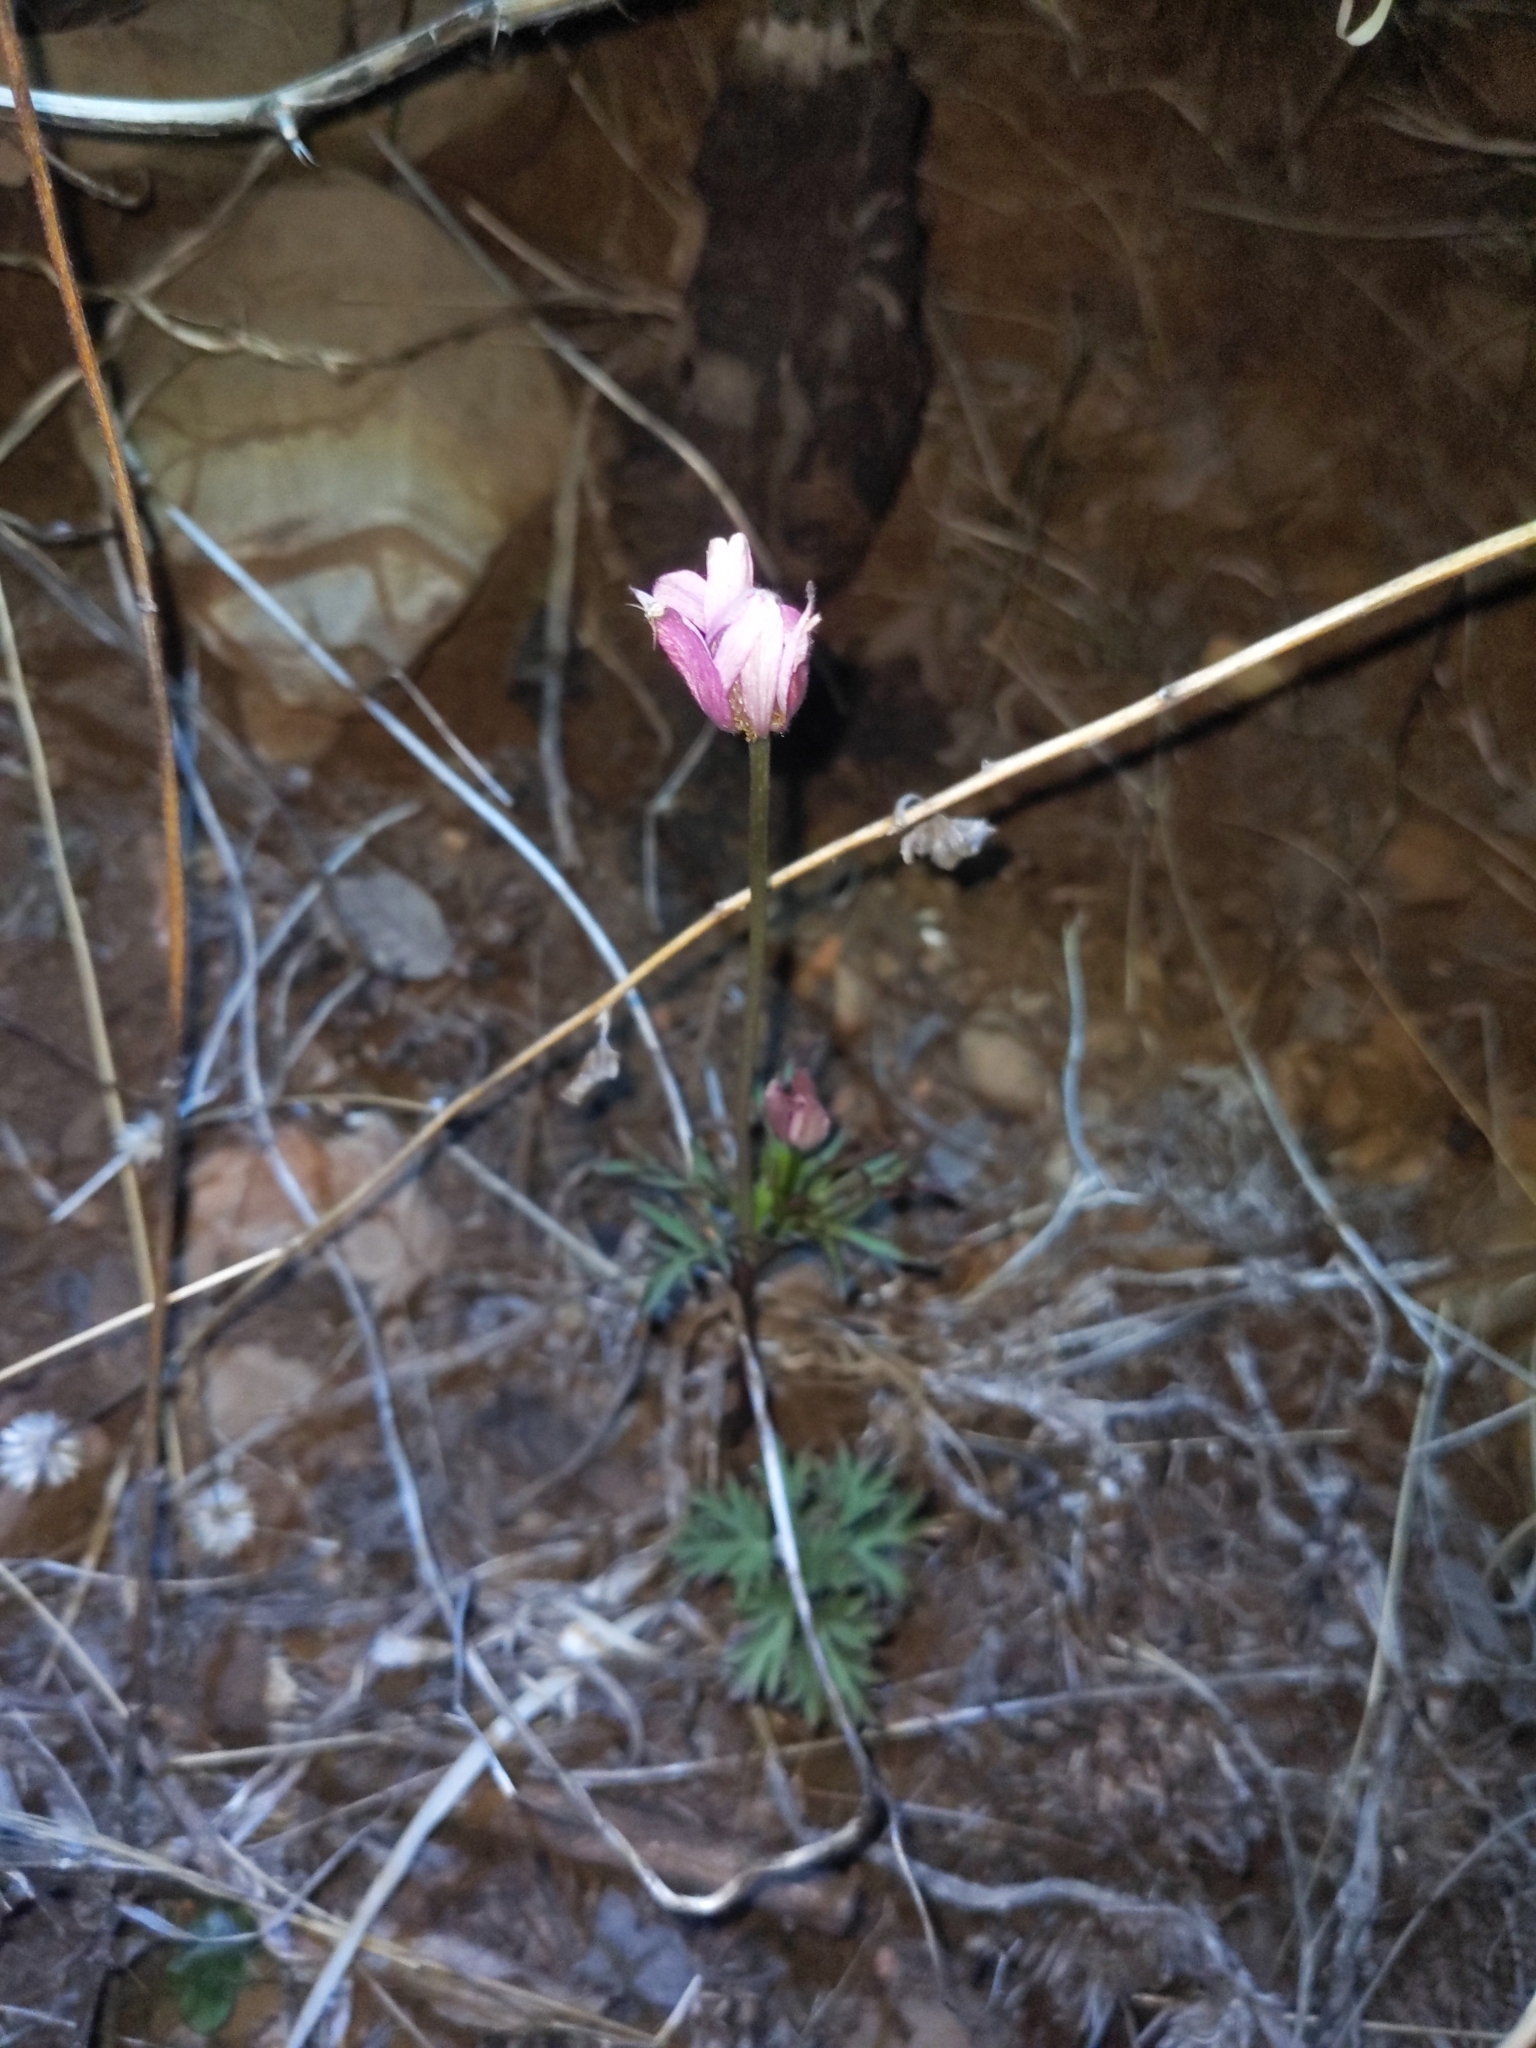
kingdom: Plantae
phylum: Tracheophyta
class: Magnoliopsida
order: Ranunculales
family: Ranunculaceae
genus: Anemone
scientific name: Anemone tuberosa
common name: Desert anemone
